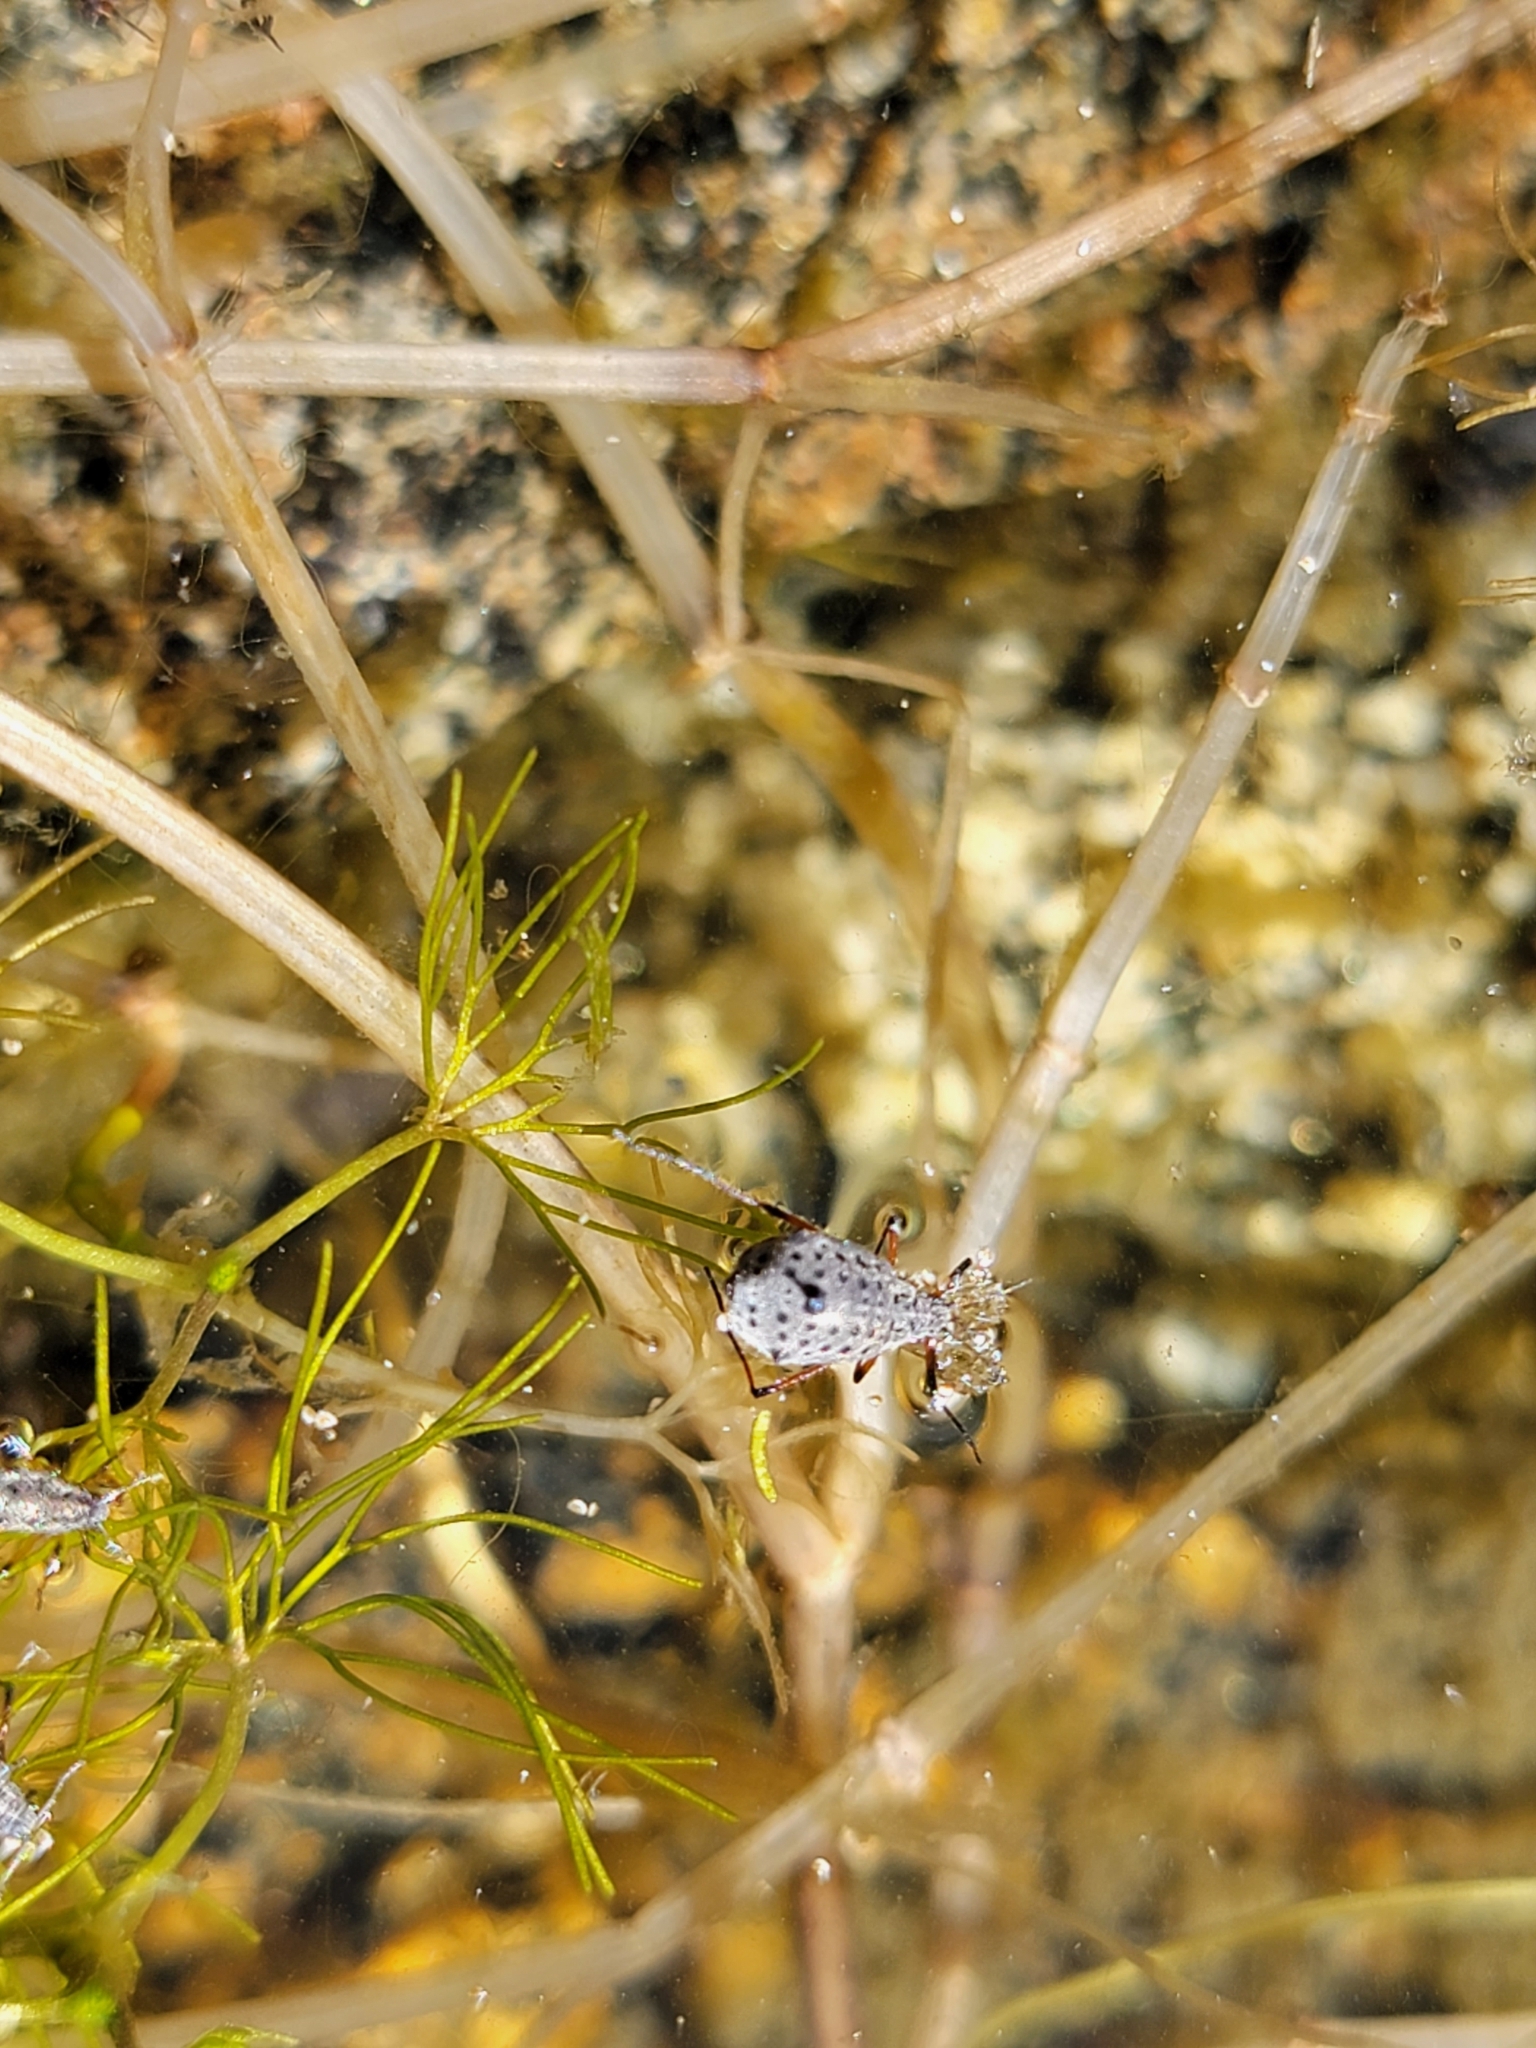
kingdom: Animalia
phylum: Arthropoda
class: Insecta
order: Hemiptera
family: Aphididae
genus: Tuberolachnus
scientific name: Tuberolachnus salignus
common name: Giant willow aphid
